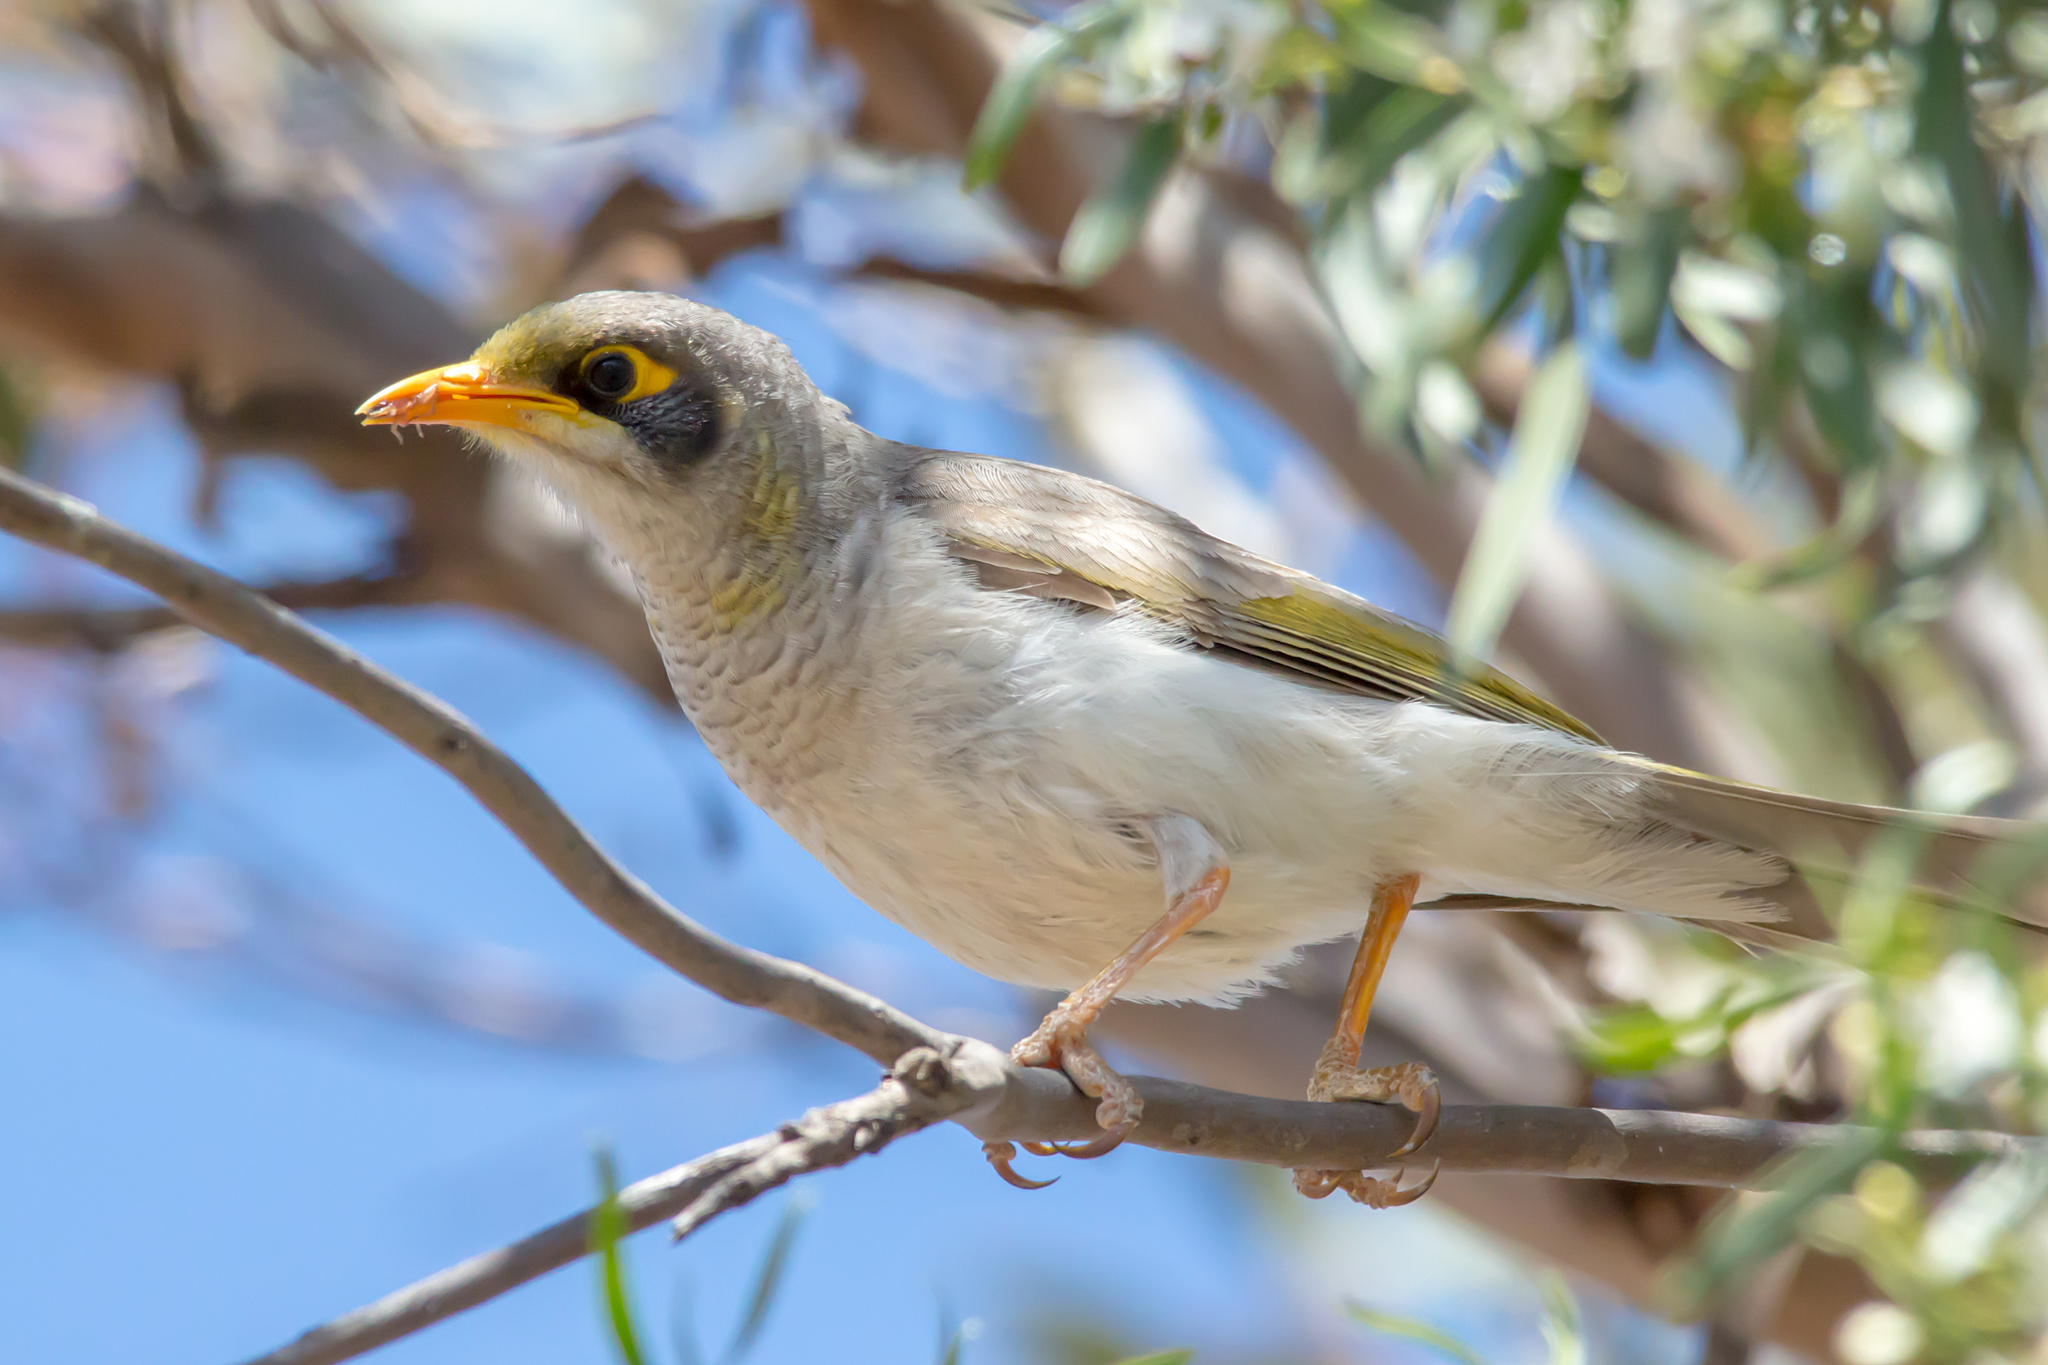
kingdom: Animalia
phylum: Chordata
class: Aves
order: Passeriformes
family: Meliphagidae
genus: Manorina
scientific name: Manorina flavigula
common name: Yellow-throated miner
